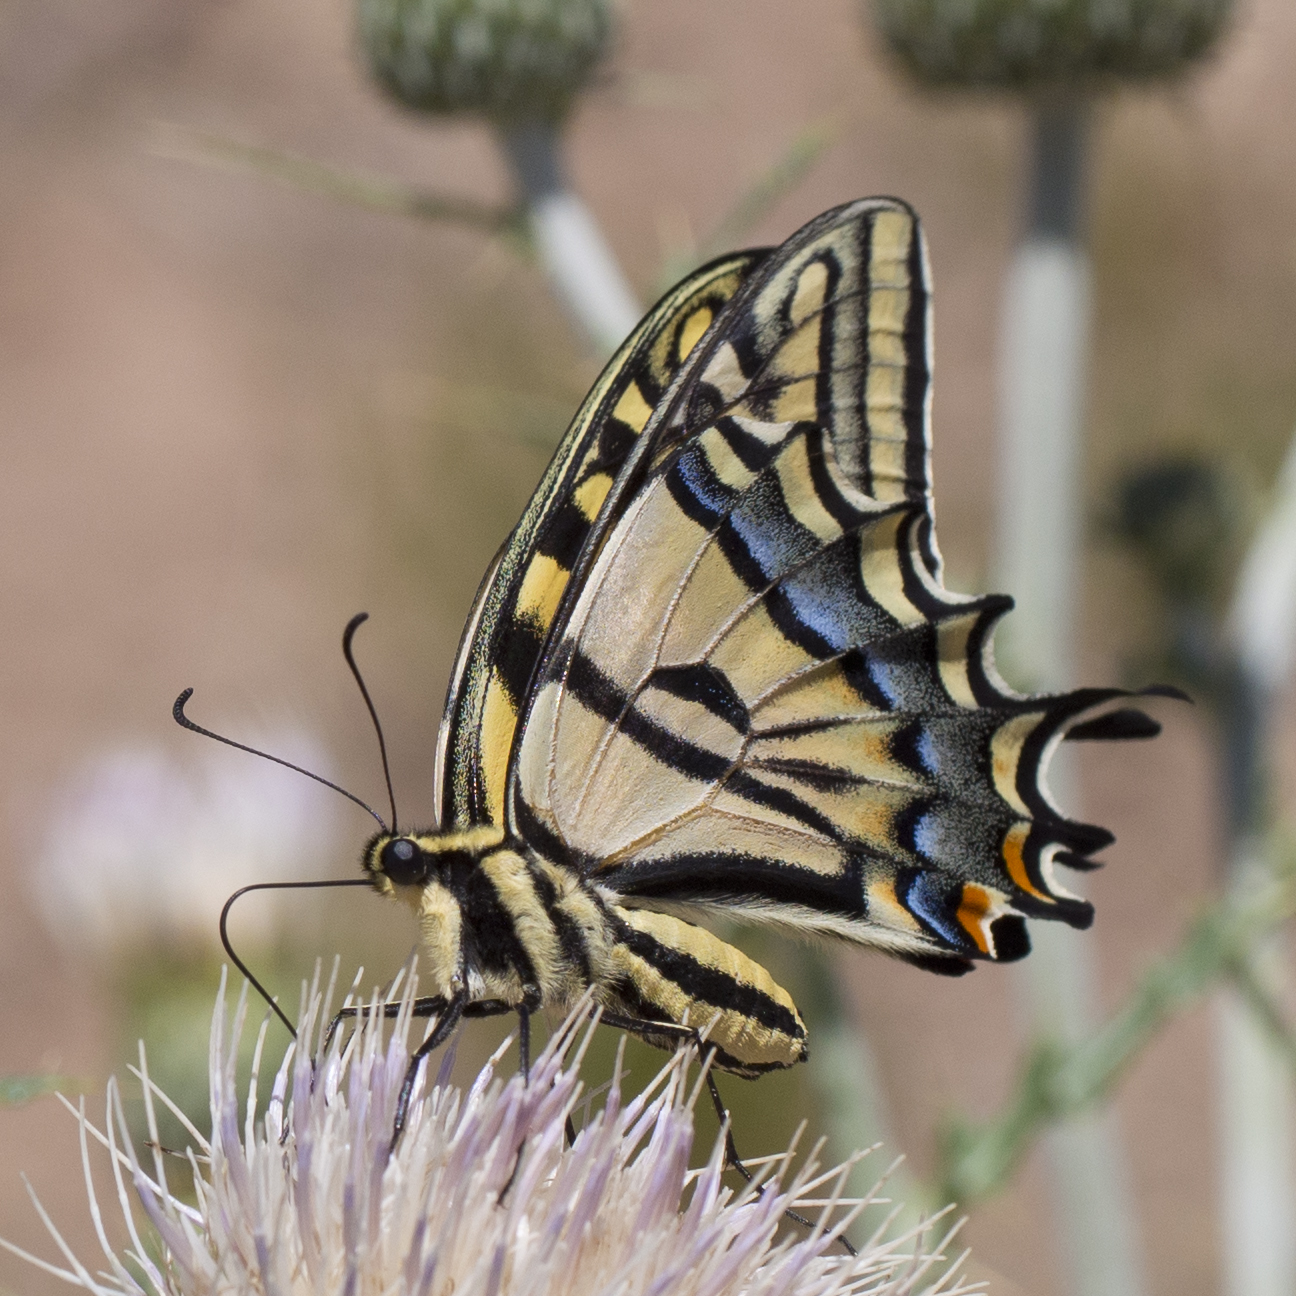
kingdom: Animalia
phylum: Arthropoda
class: Insecta
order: Lepidoptera
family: Papilionidae
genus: Papilio
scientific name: Papilio multicaudata
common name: Two-tailed tiger swallowtail
